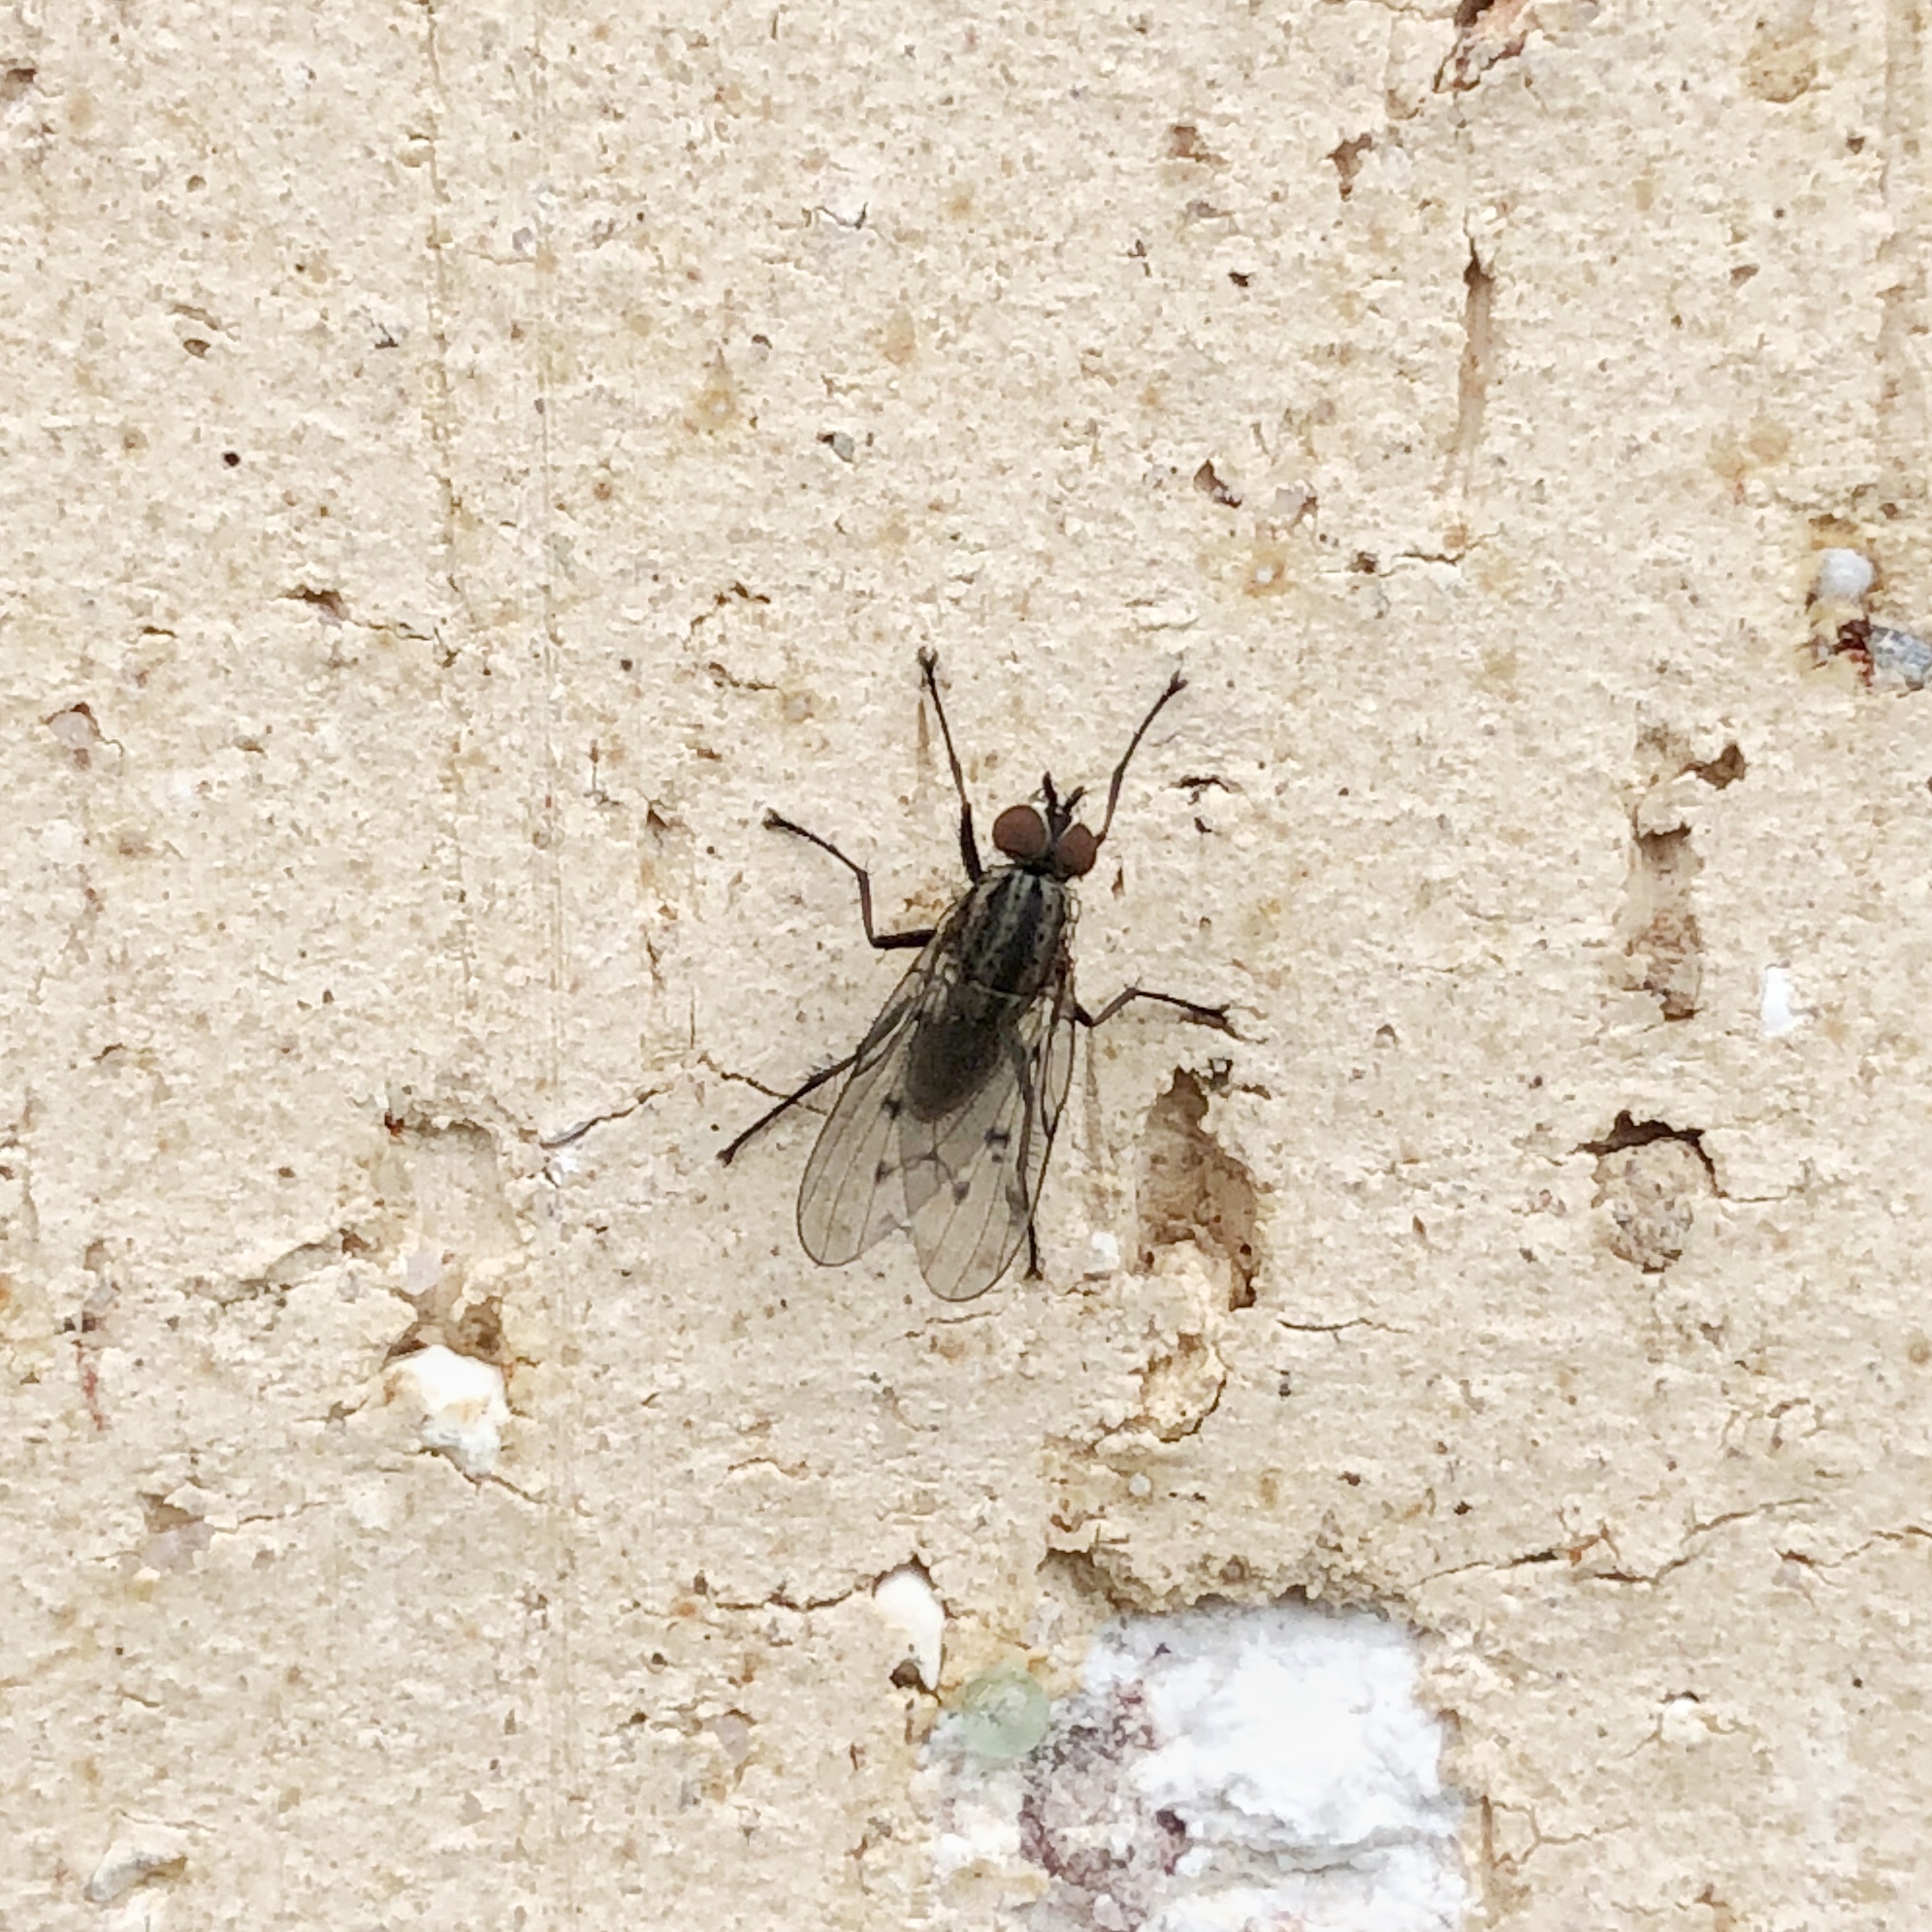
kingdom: Animalia
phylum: Arthropoda
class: Insecta
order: Diptera
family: Anthomyiidae
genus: Anthomyia
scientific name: Anthomyia punctipennis
